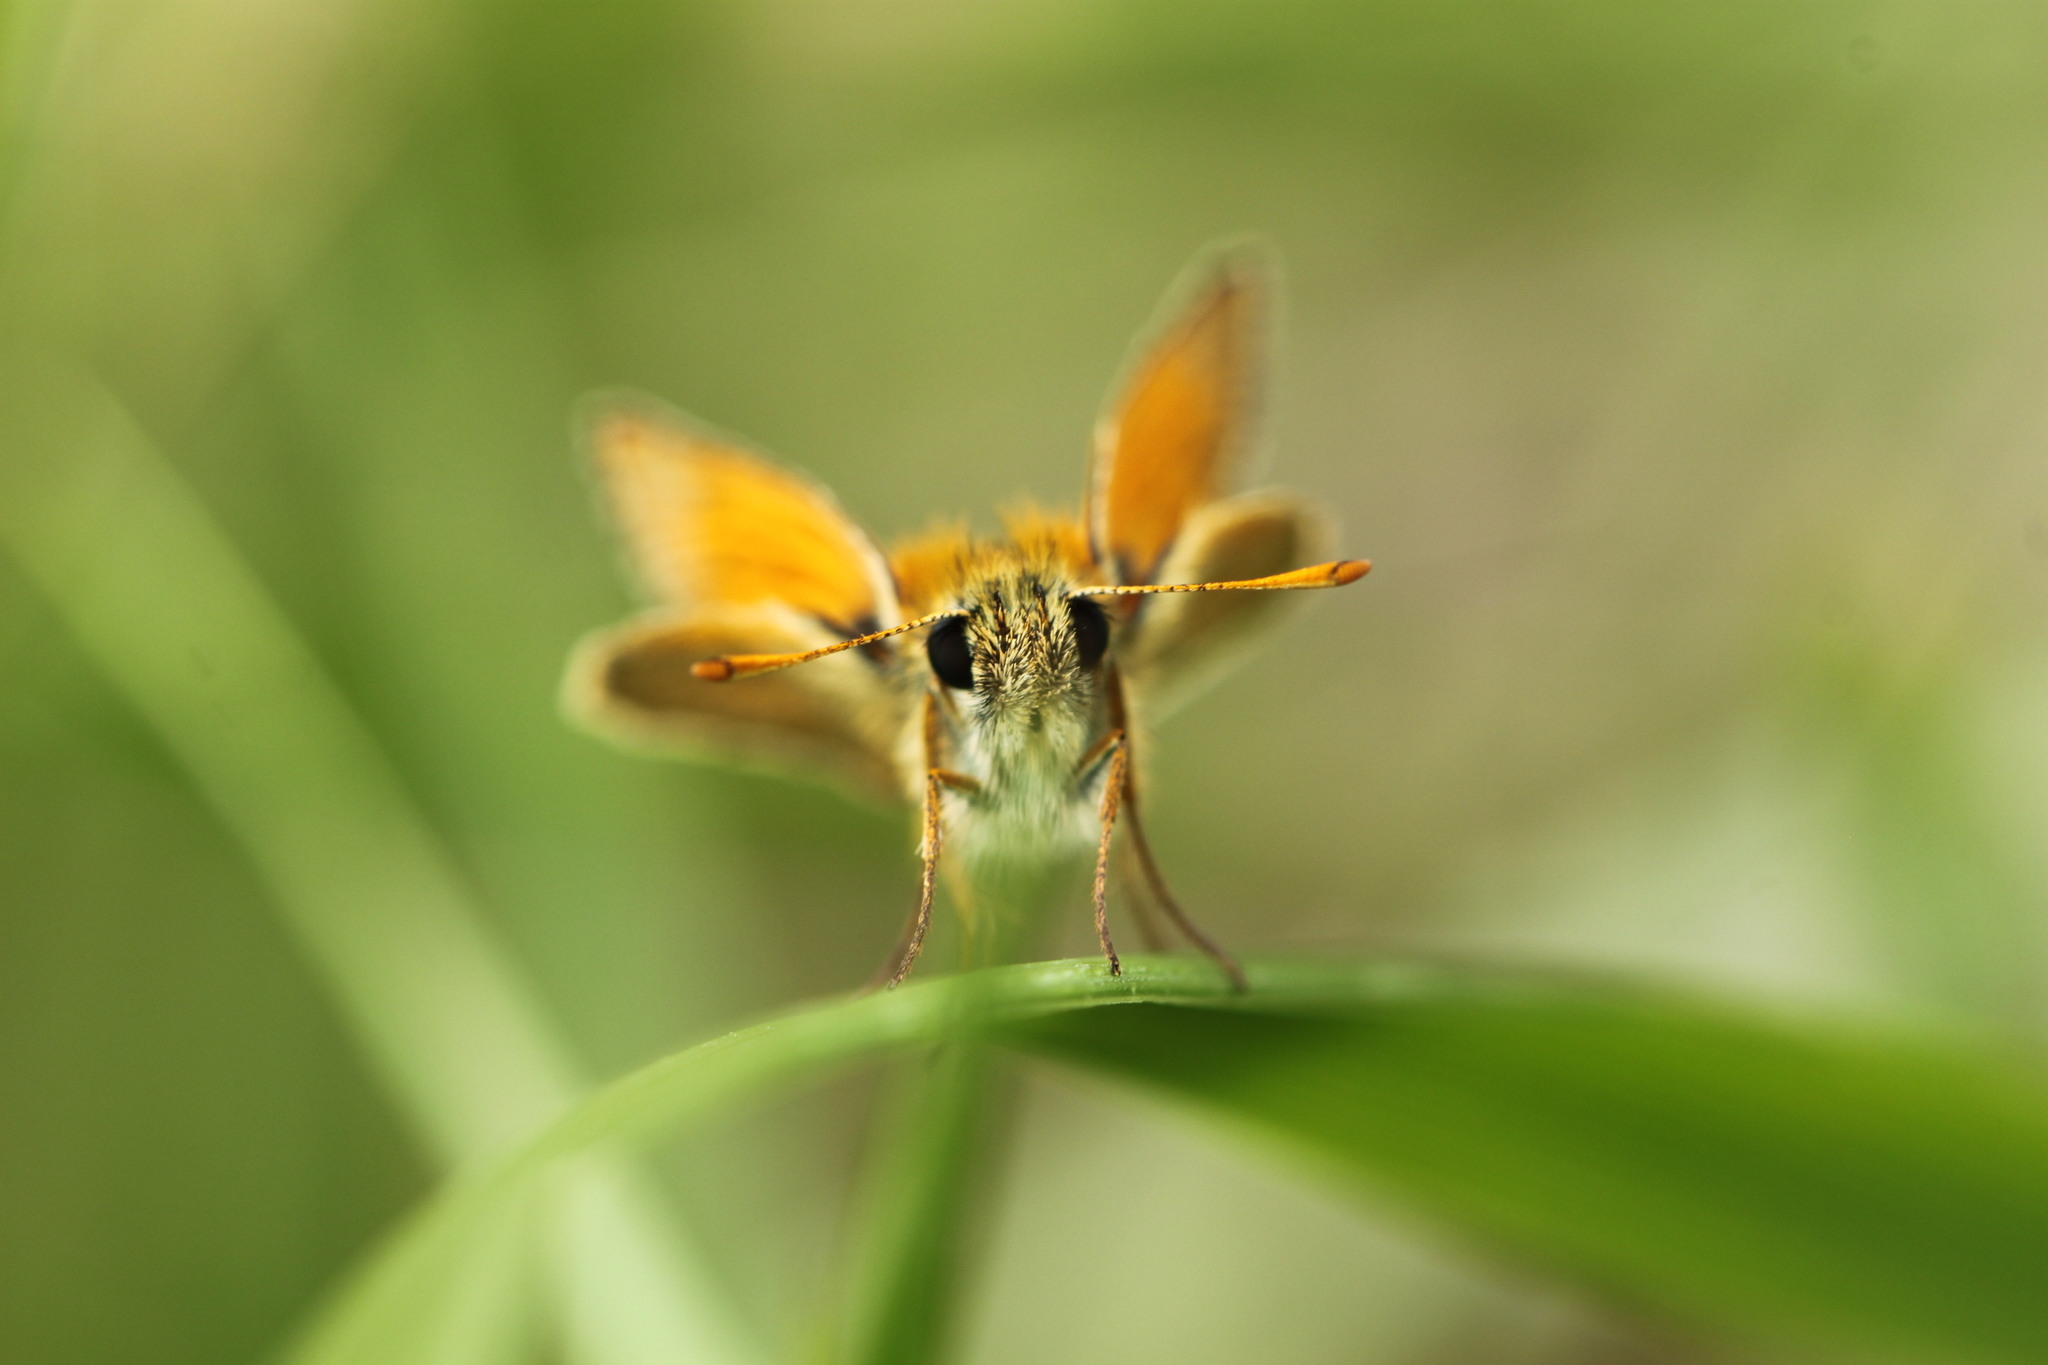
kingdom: Animalia
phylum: Arthropoda
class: Insecta
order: Lepidoptera
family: Hesperiidae
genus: Thymelicus
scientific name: Thymelicus sylvestris
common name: Small skipper
